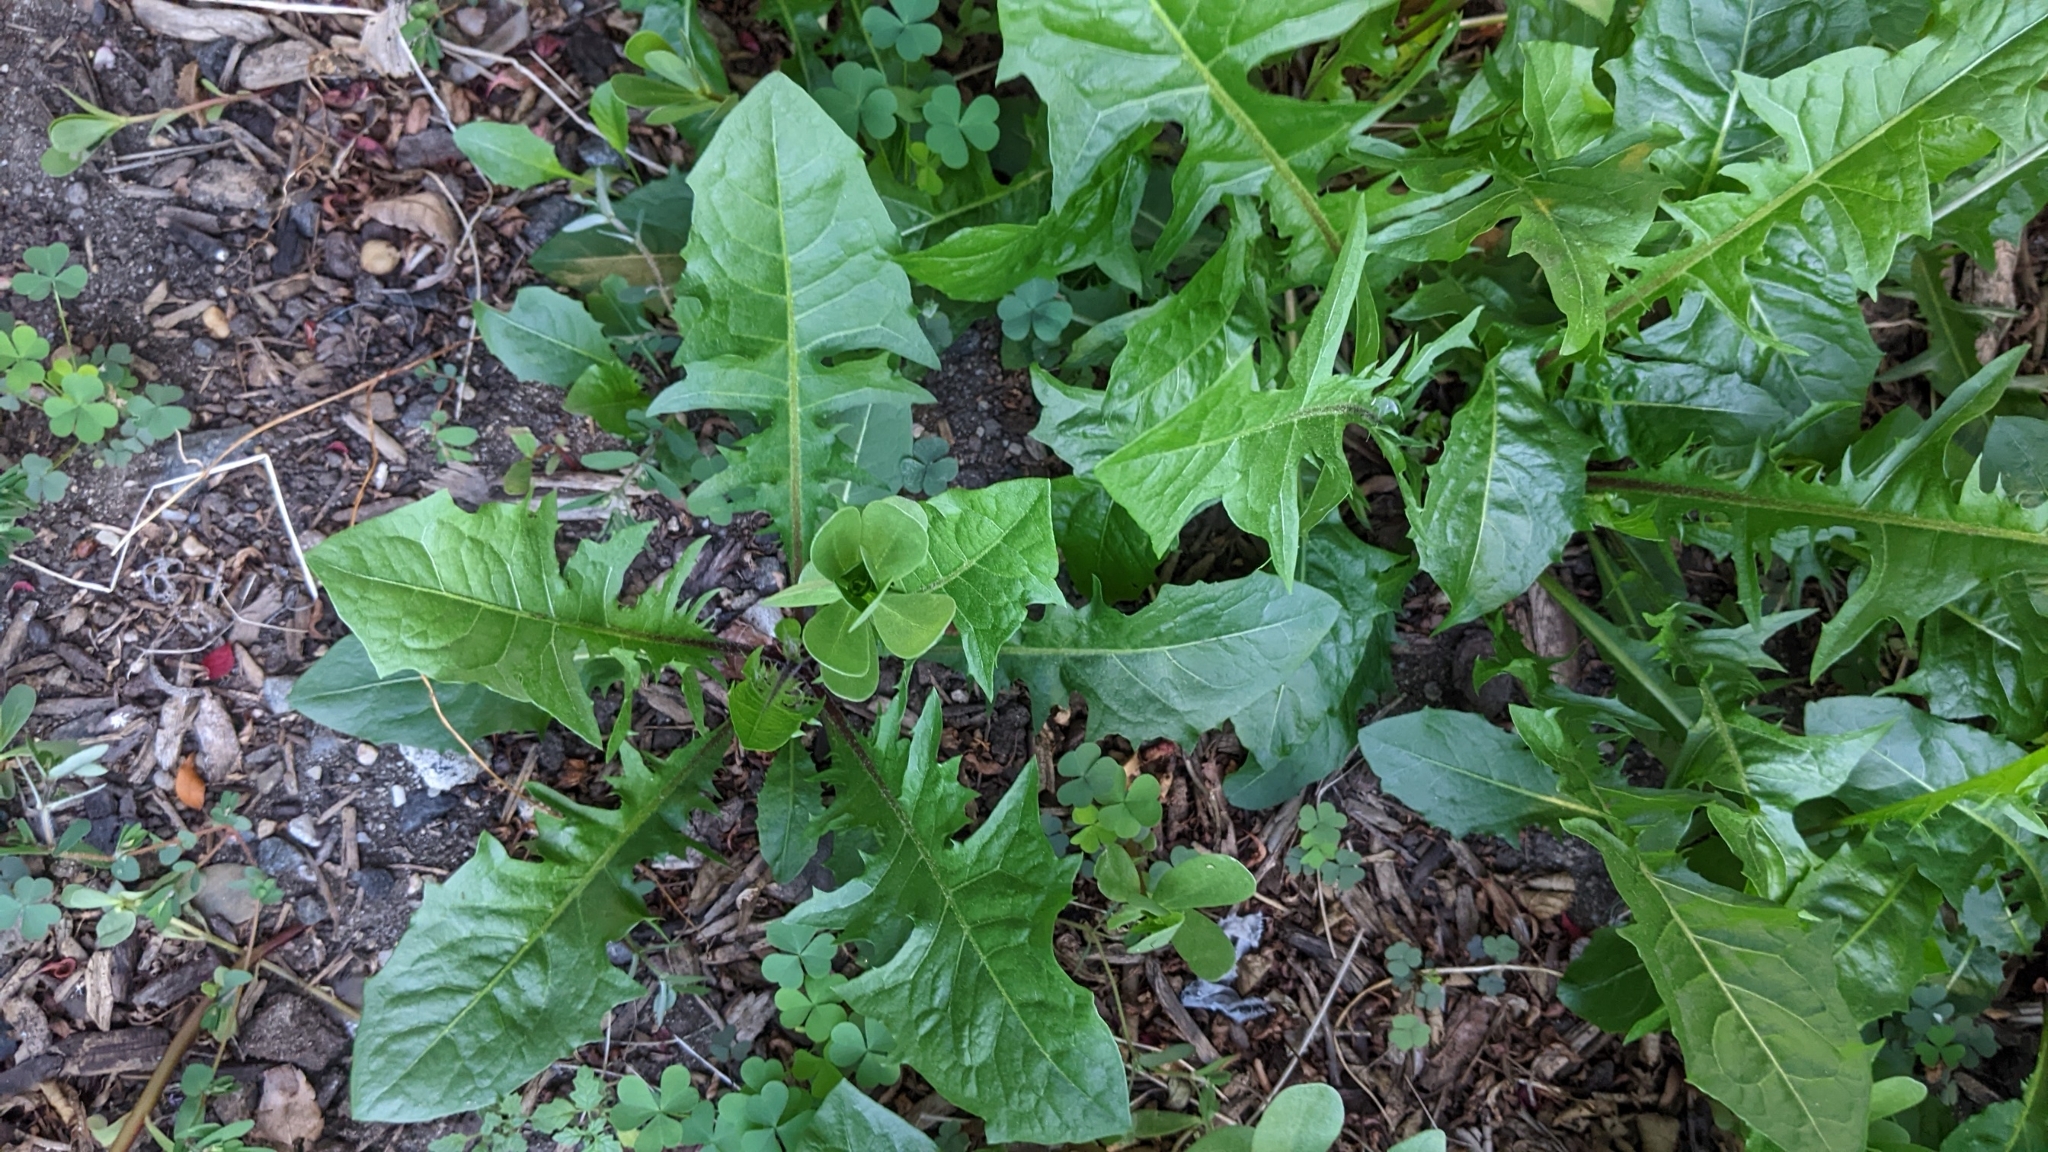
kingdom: Plantae
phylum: Tracheophyta
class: Magnoliopsida
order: Asterales
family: Asteraceae
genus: Taraxacum
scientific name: Taraxacum officinale
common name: Common dandelion
